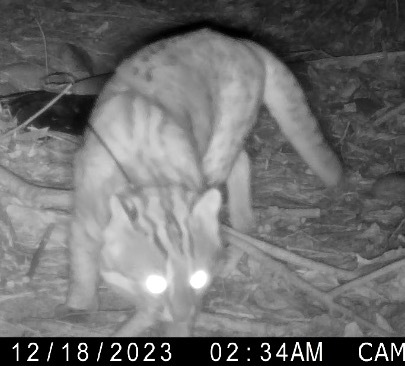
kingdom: Animalia
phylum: Chordata
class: Mammalia
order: Carnivora
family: Felidae
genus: Prionailurus
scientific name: Prionailurus bengalensis
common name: Leopard cat
